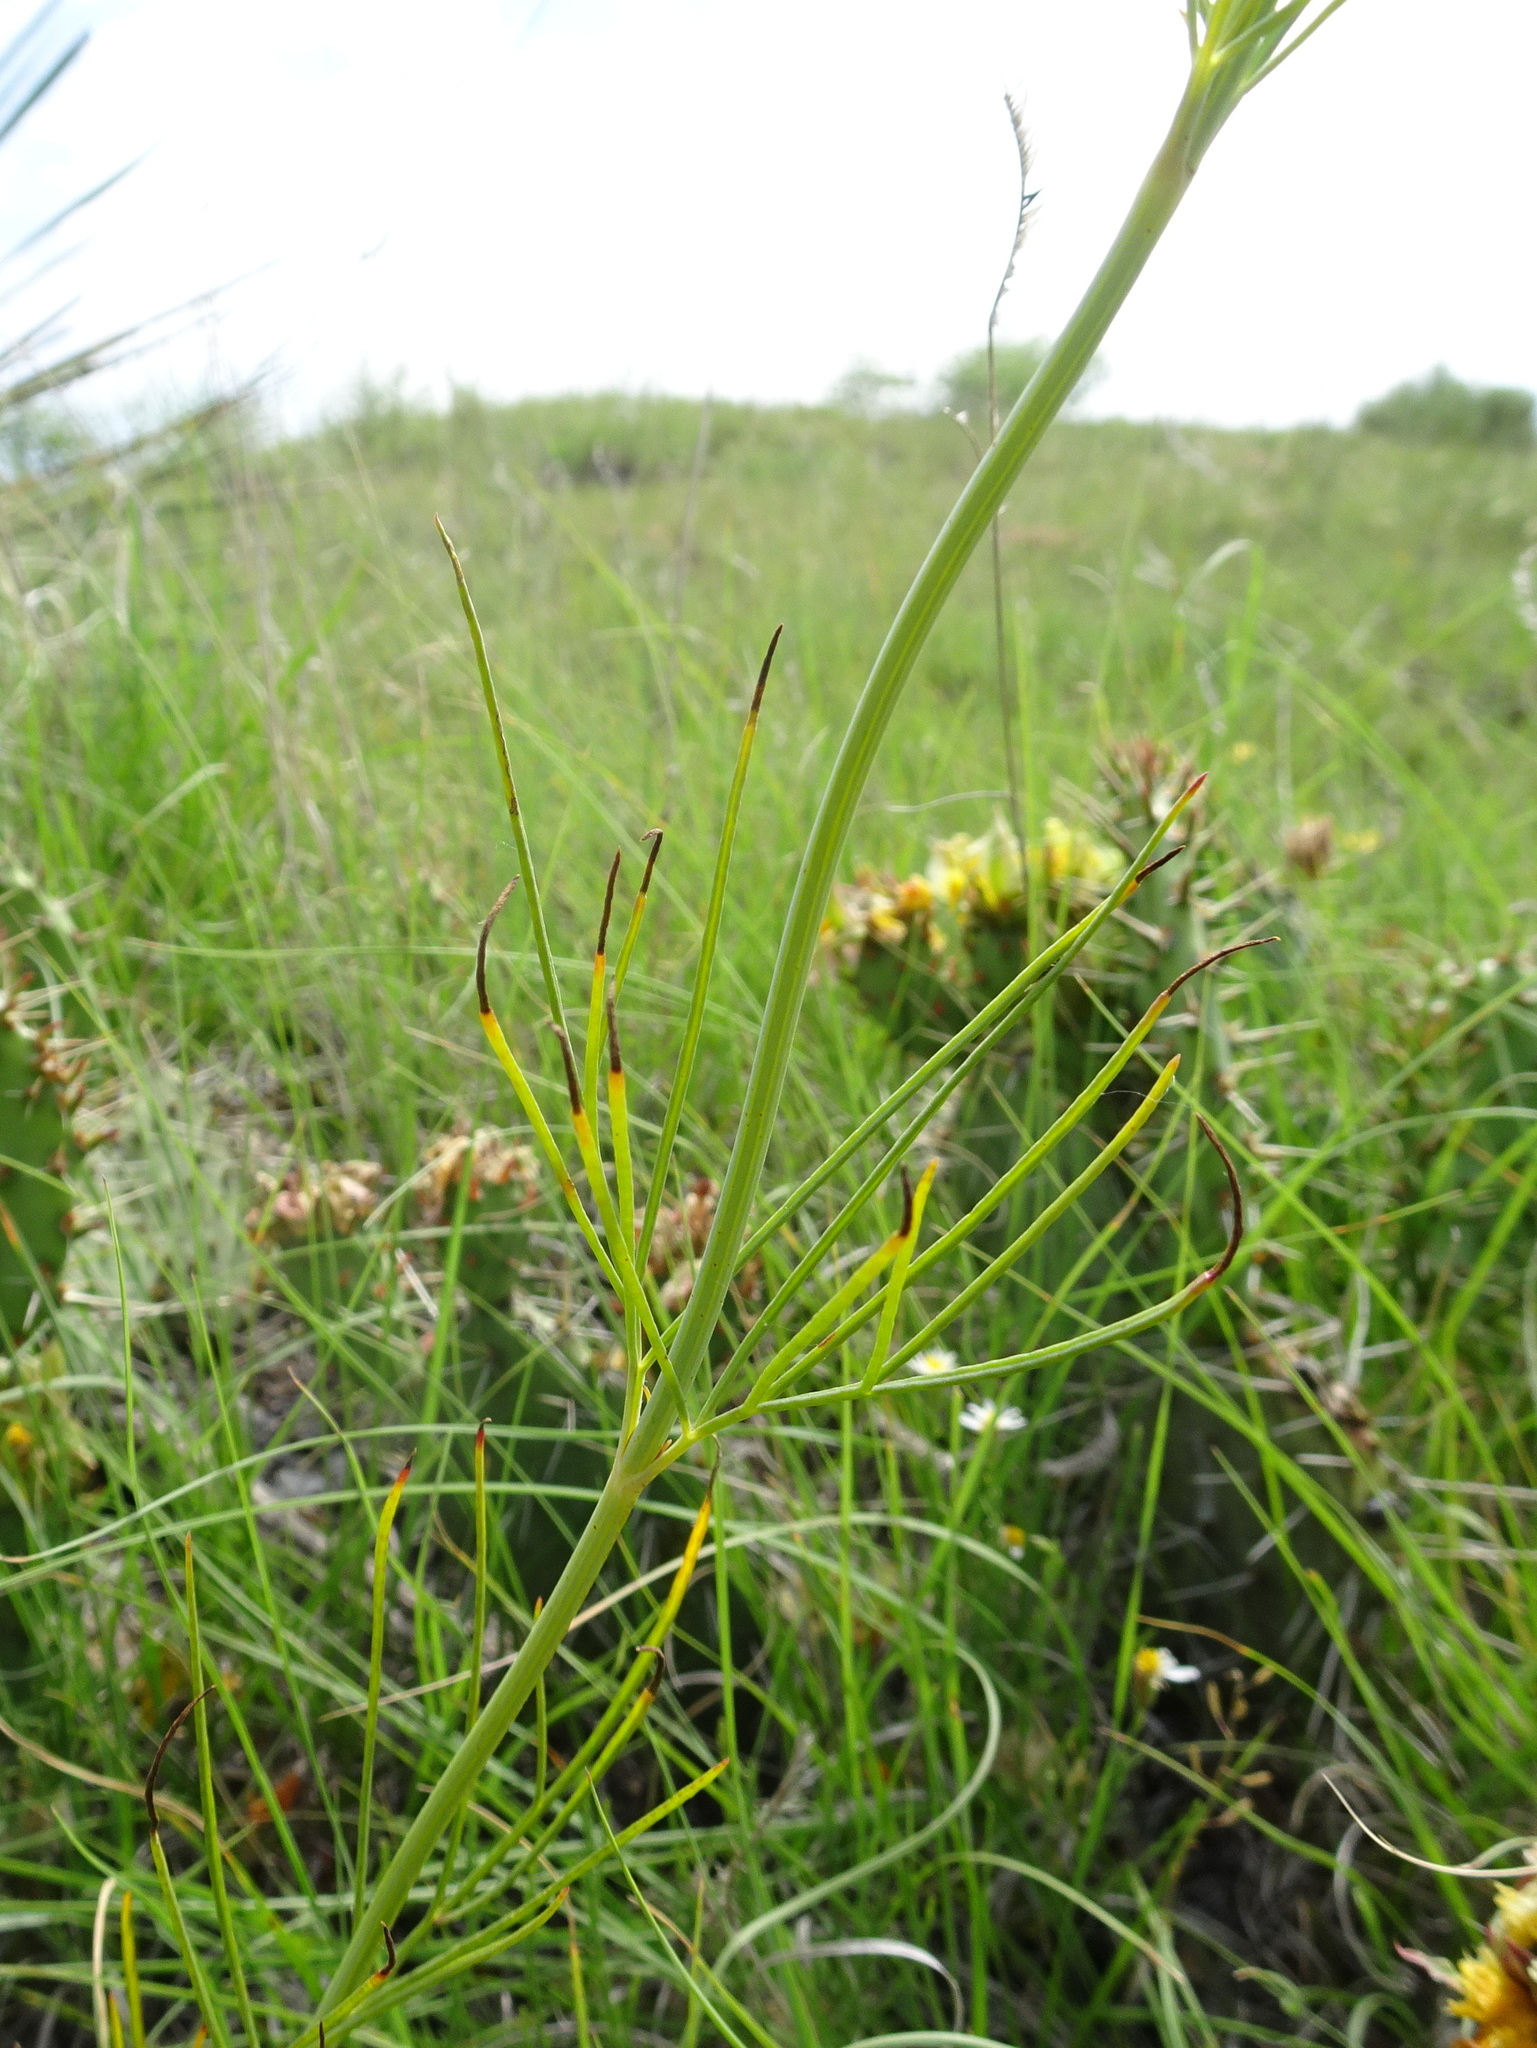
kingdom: Plantae
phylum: Tracheophyta
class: Magnoliopsida
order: Asterales
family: Asteraceae
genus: Thelesperma
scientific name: Thelesperma megapotamicum
